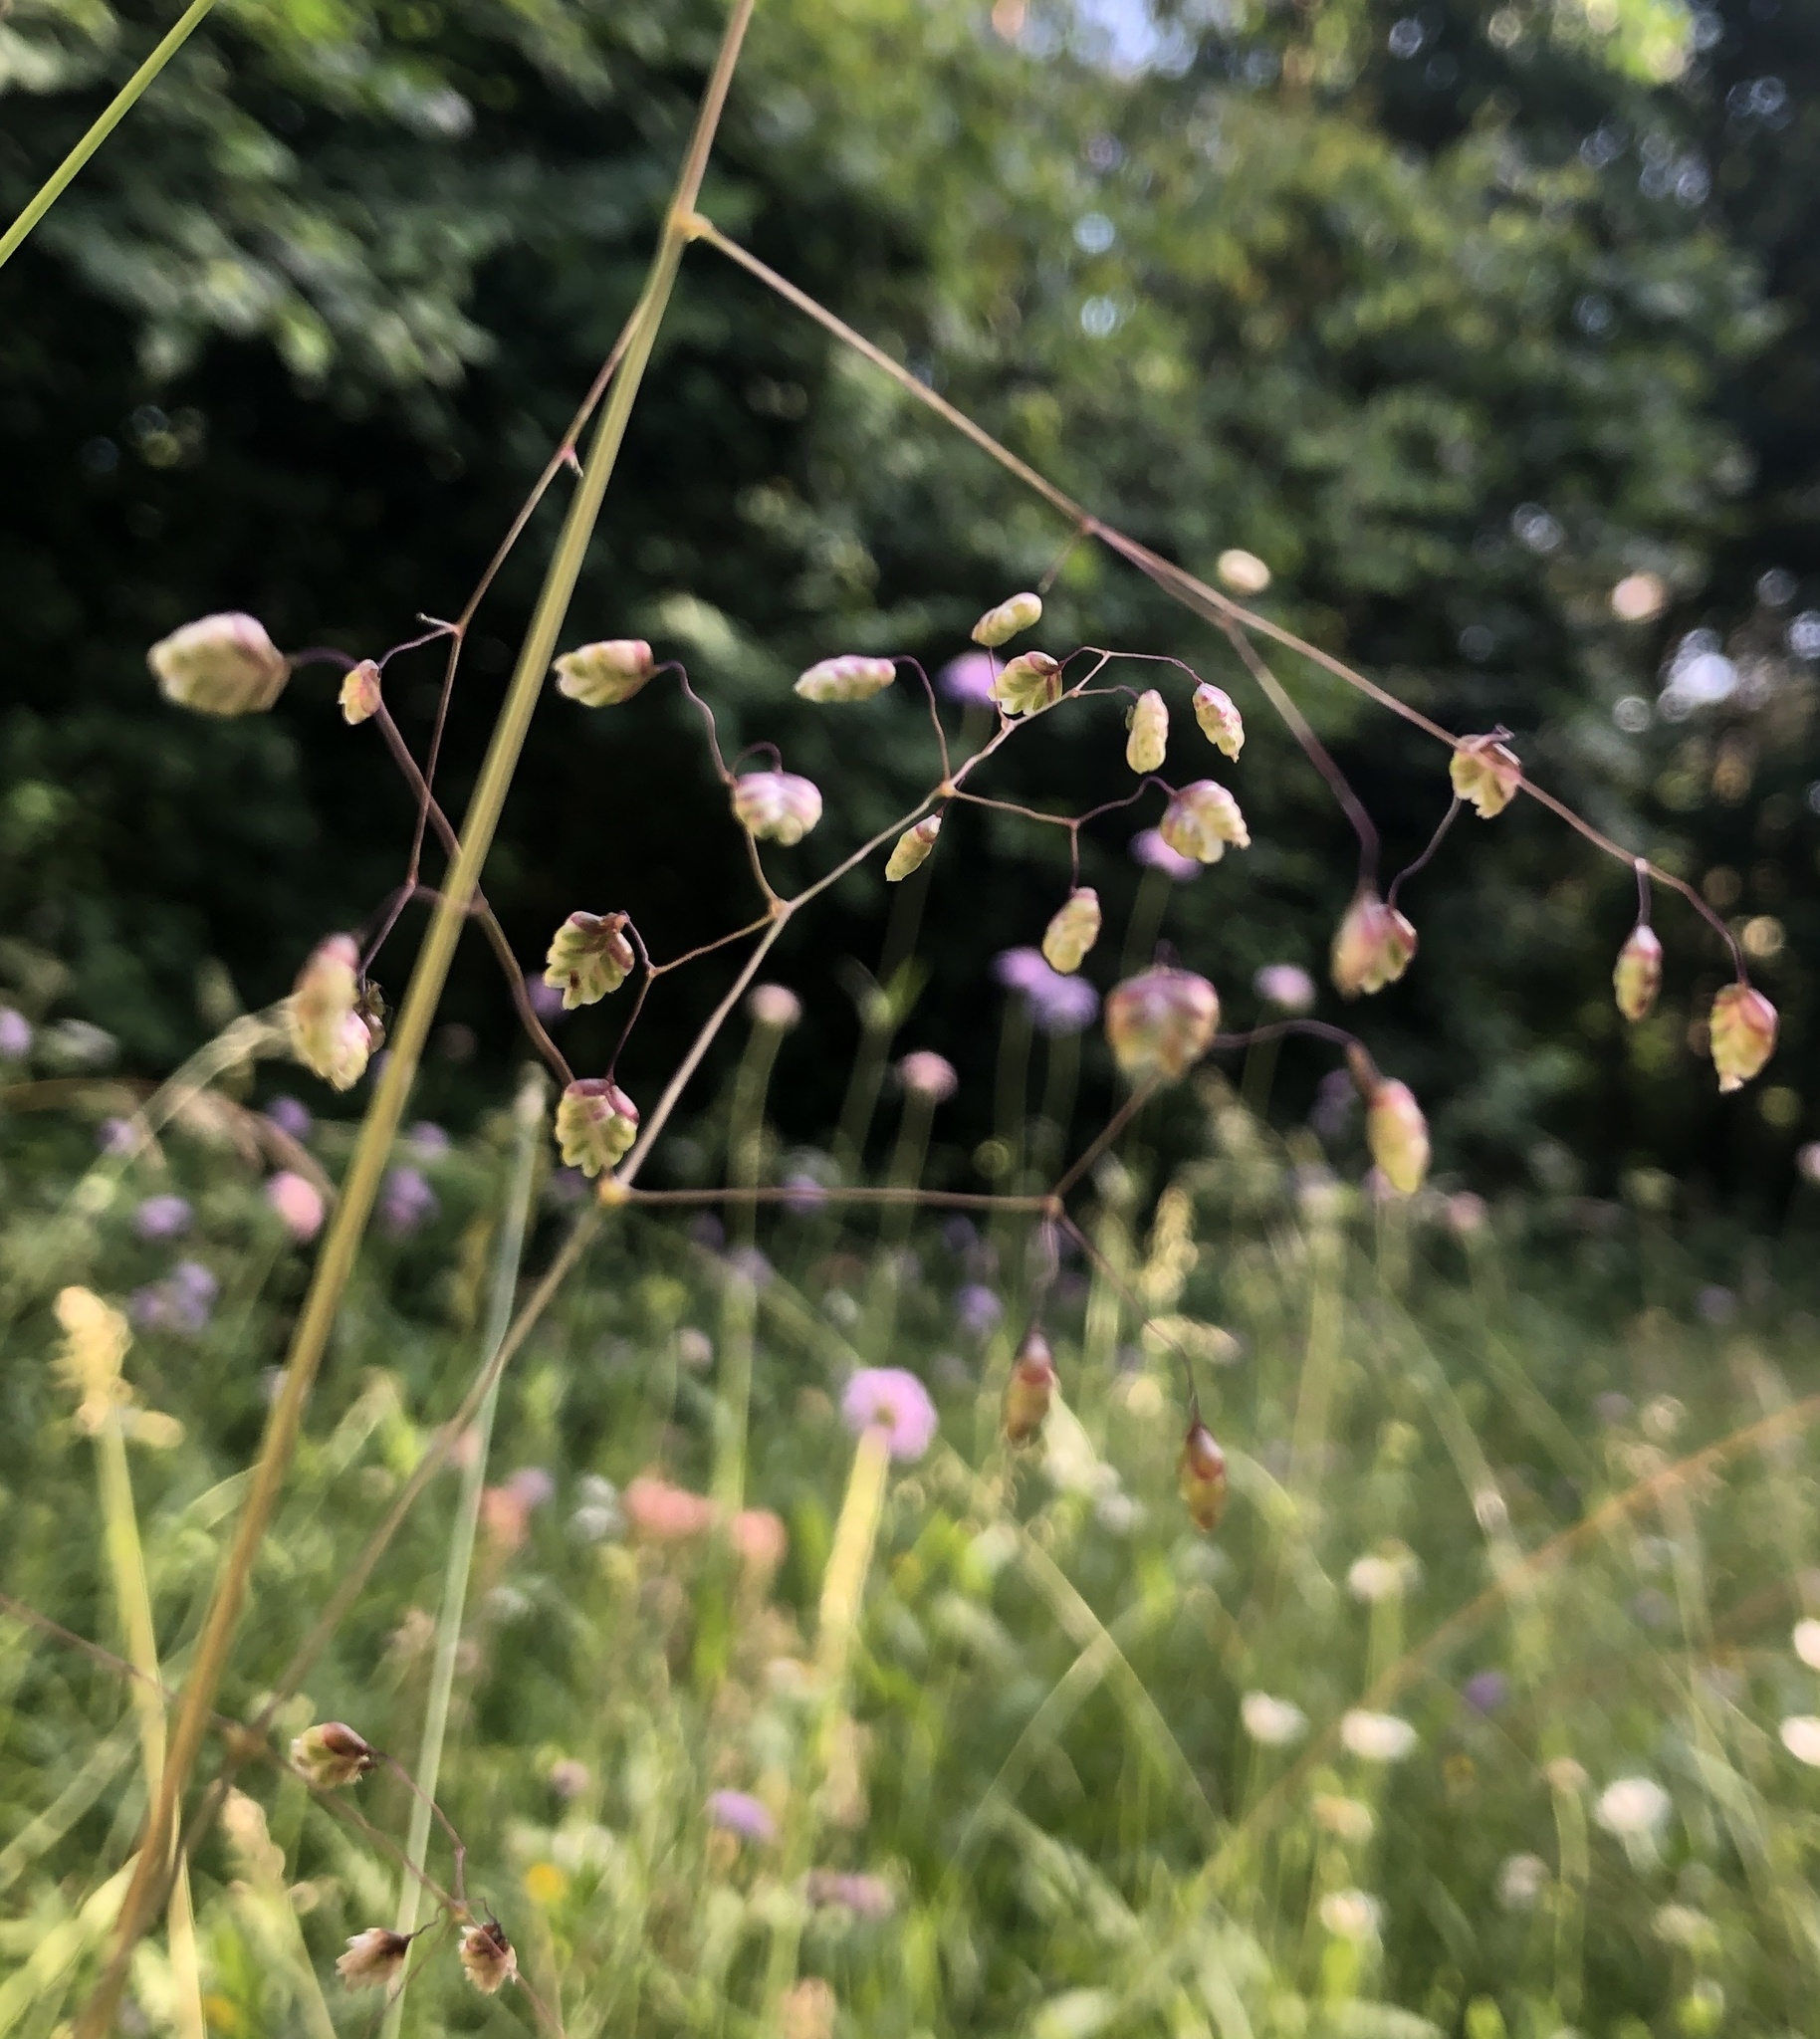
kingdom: Plantae
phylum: Tracheophyta
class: Liliopsida
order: Poales
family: Poaceae
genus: Briza
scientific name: Briza media
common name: Quaking grass
